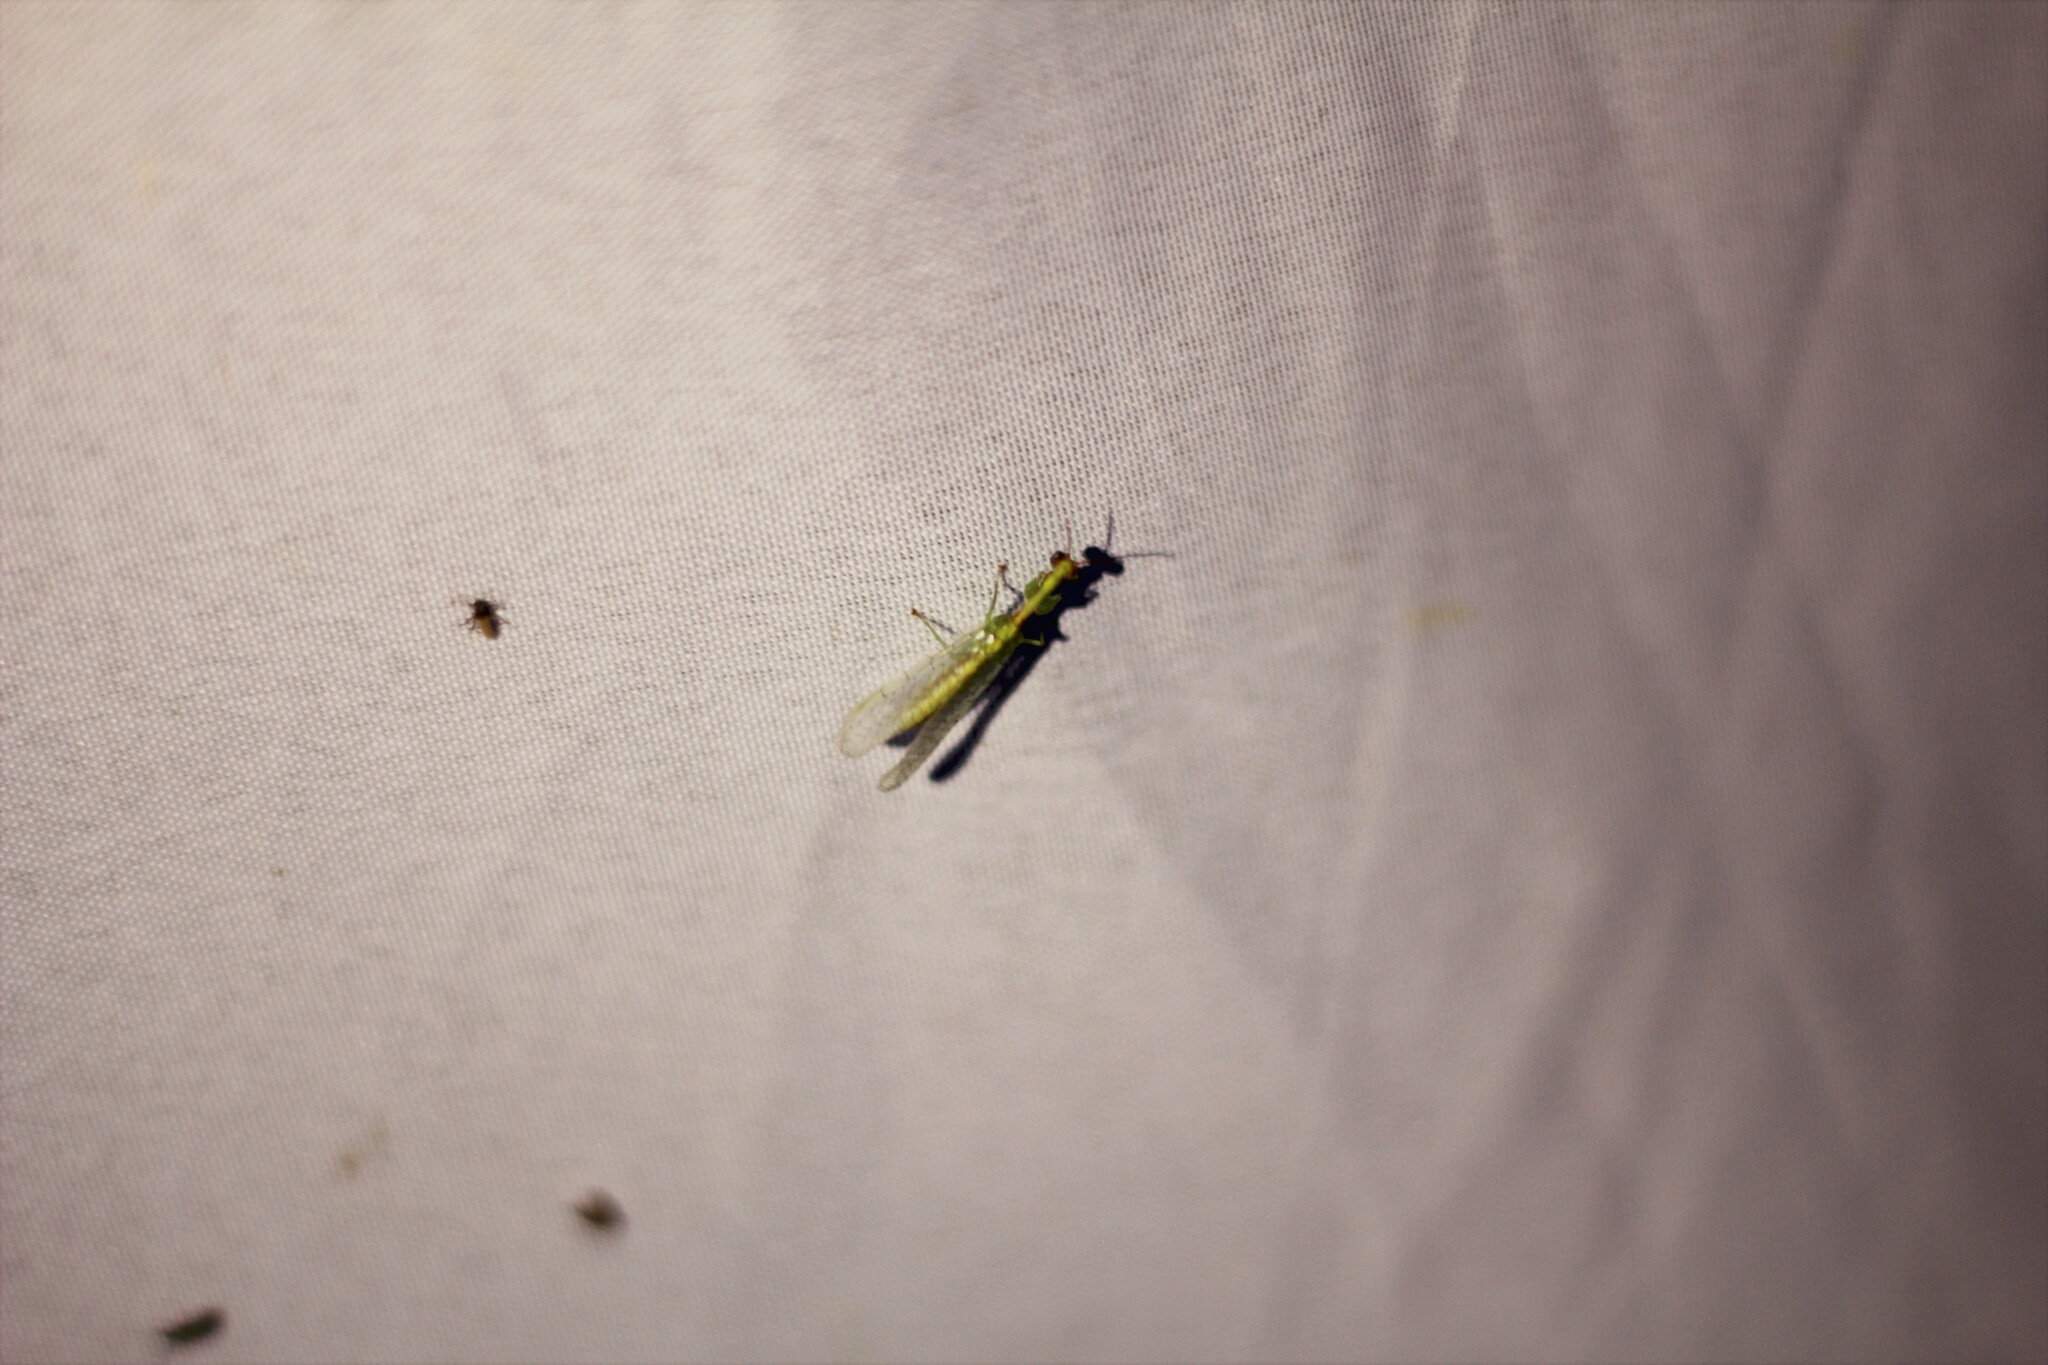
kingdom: Animalia
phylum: Arthropoda
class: Insecta
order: Neuroptera
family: Mantispidae
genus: Zeugomantispa
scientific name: Zeugomantispa minuta
